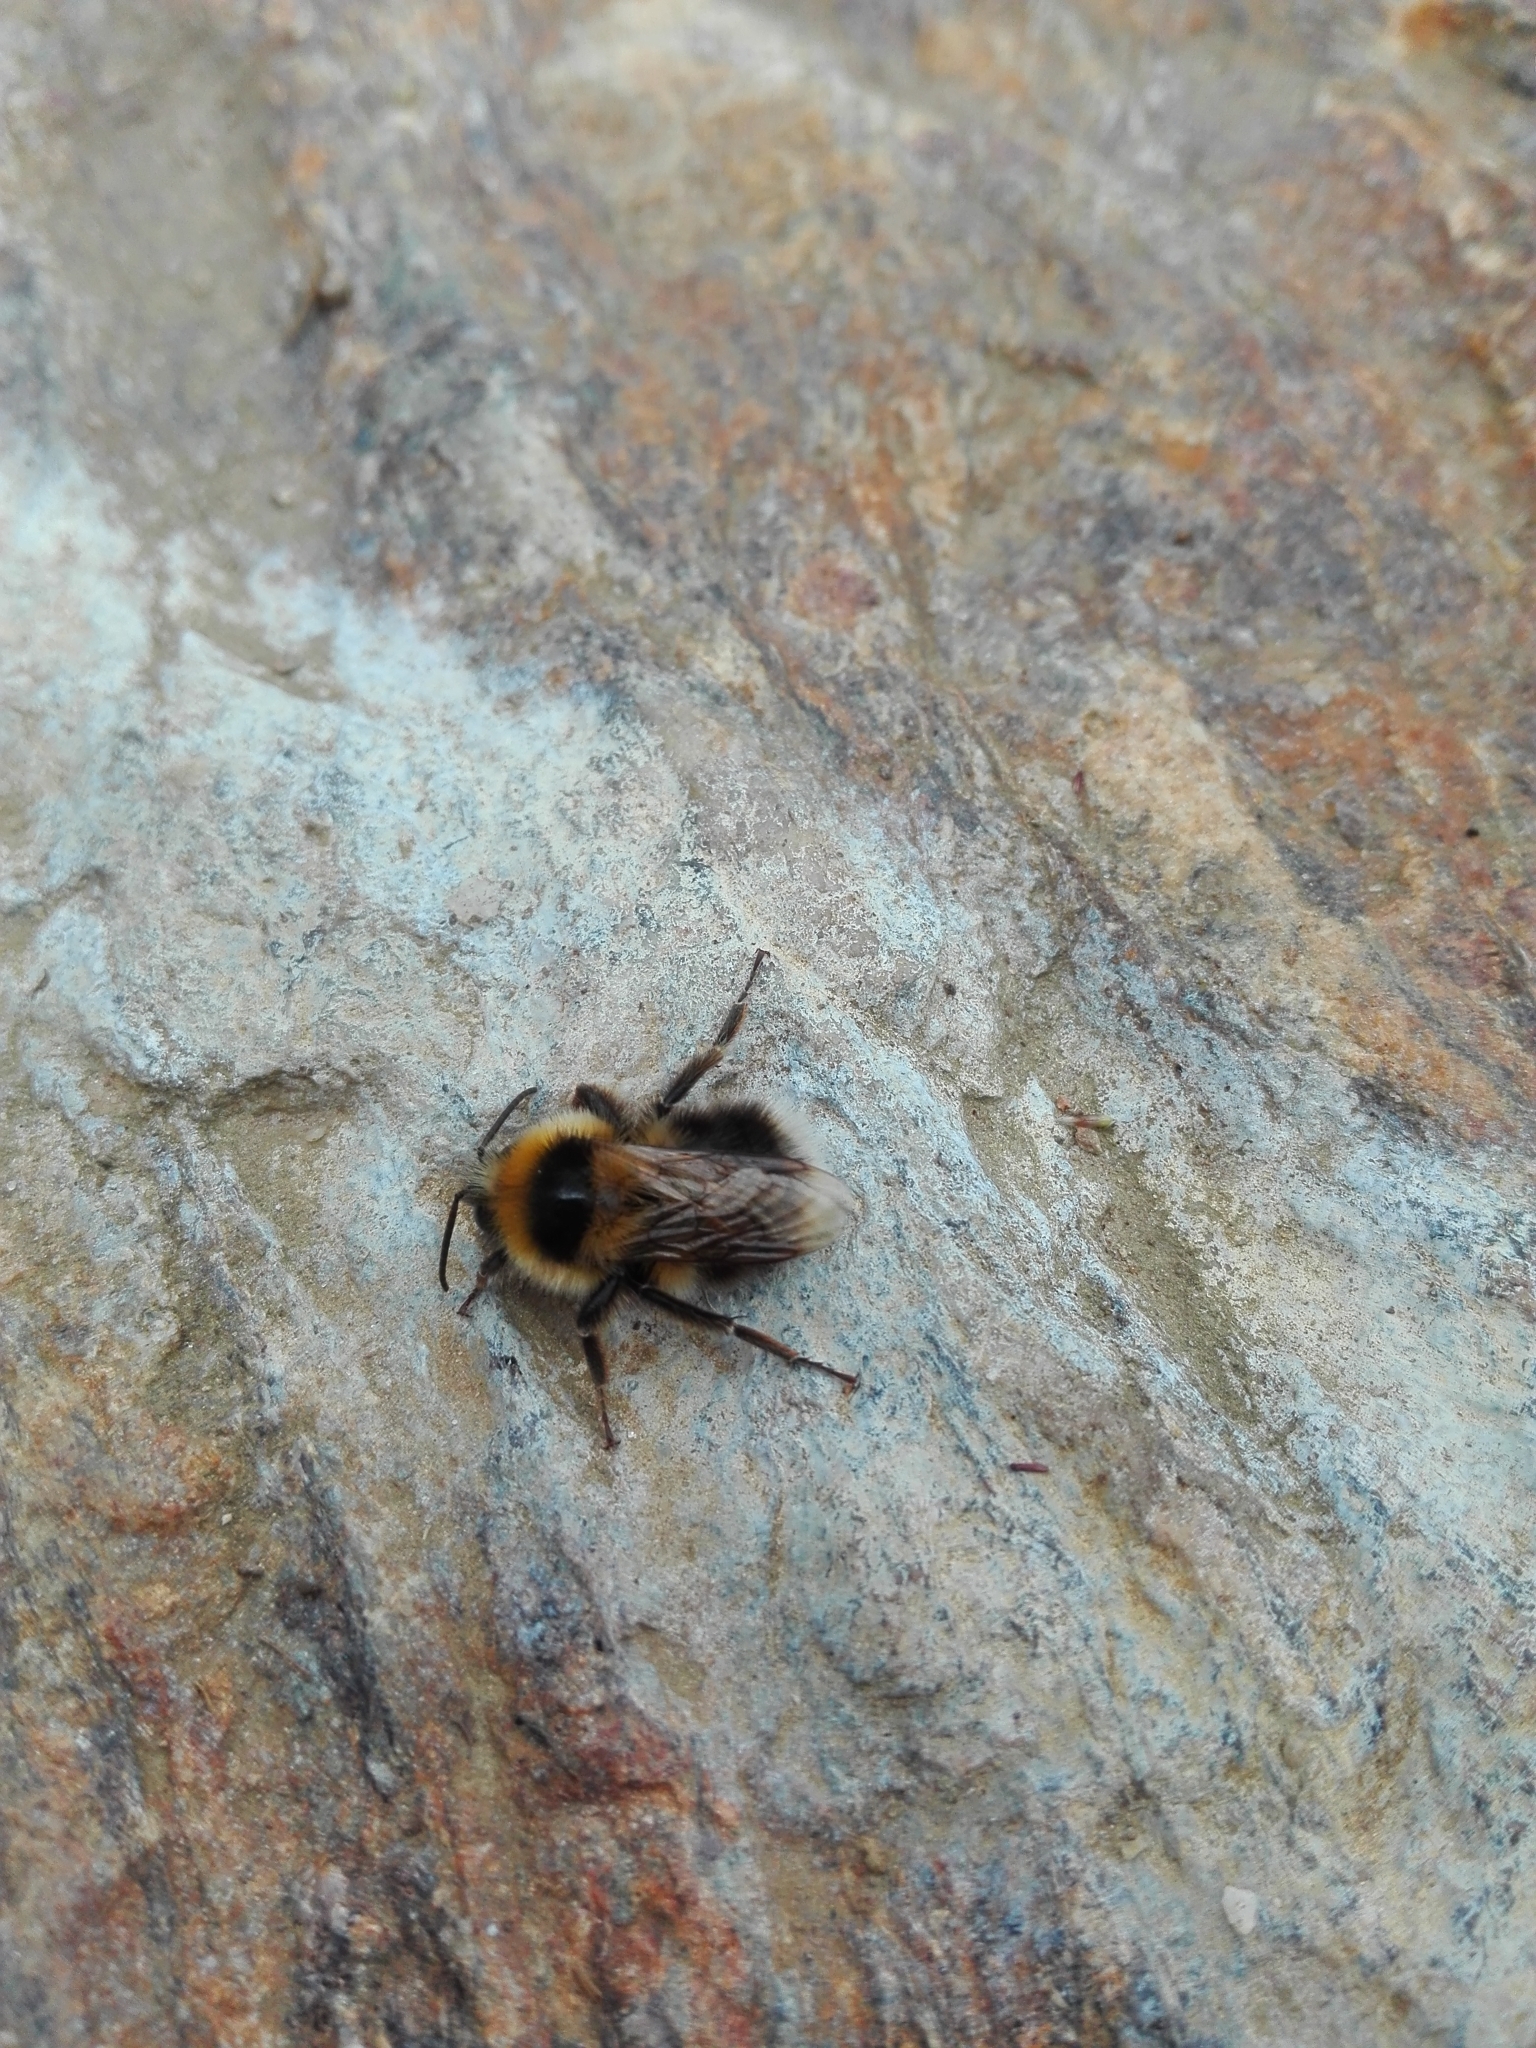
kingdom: Animalia
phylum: Arthropoda
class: Insecta
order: Hymenoptera
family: Apidae
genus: Bombus
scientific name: Bombus jonellus
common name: Heath humble-bee
